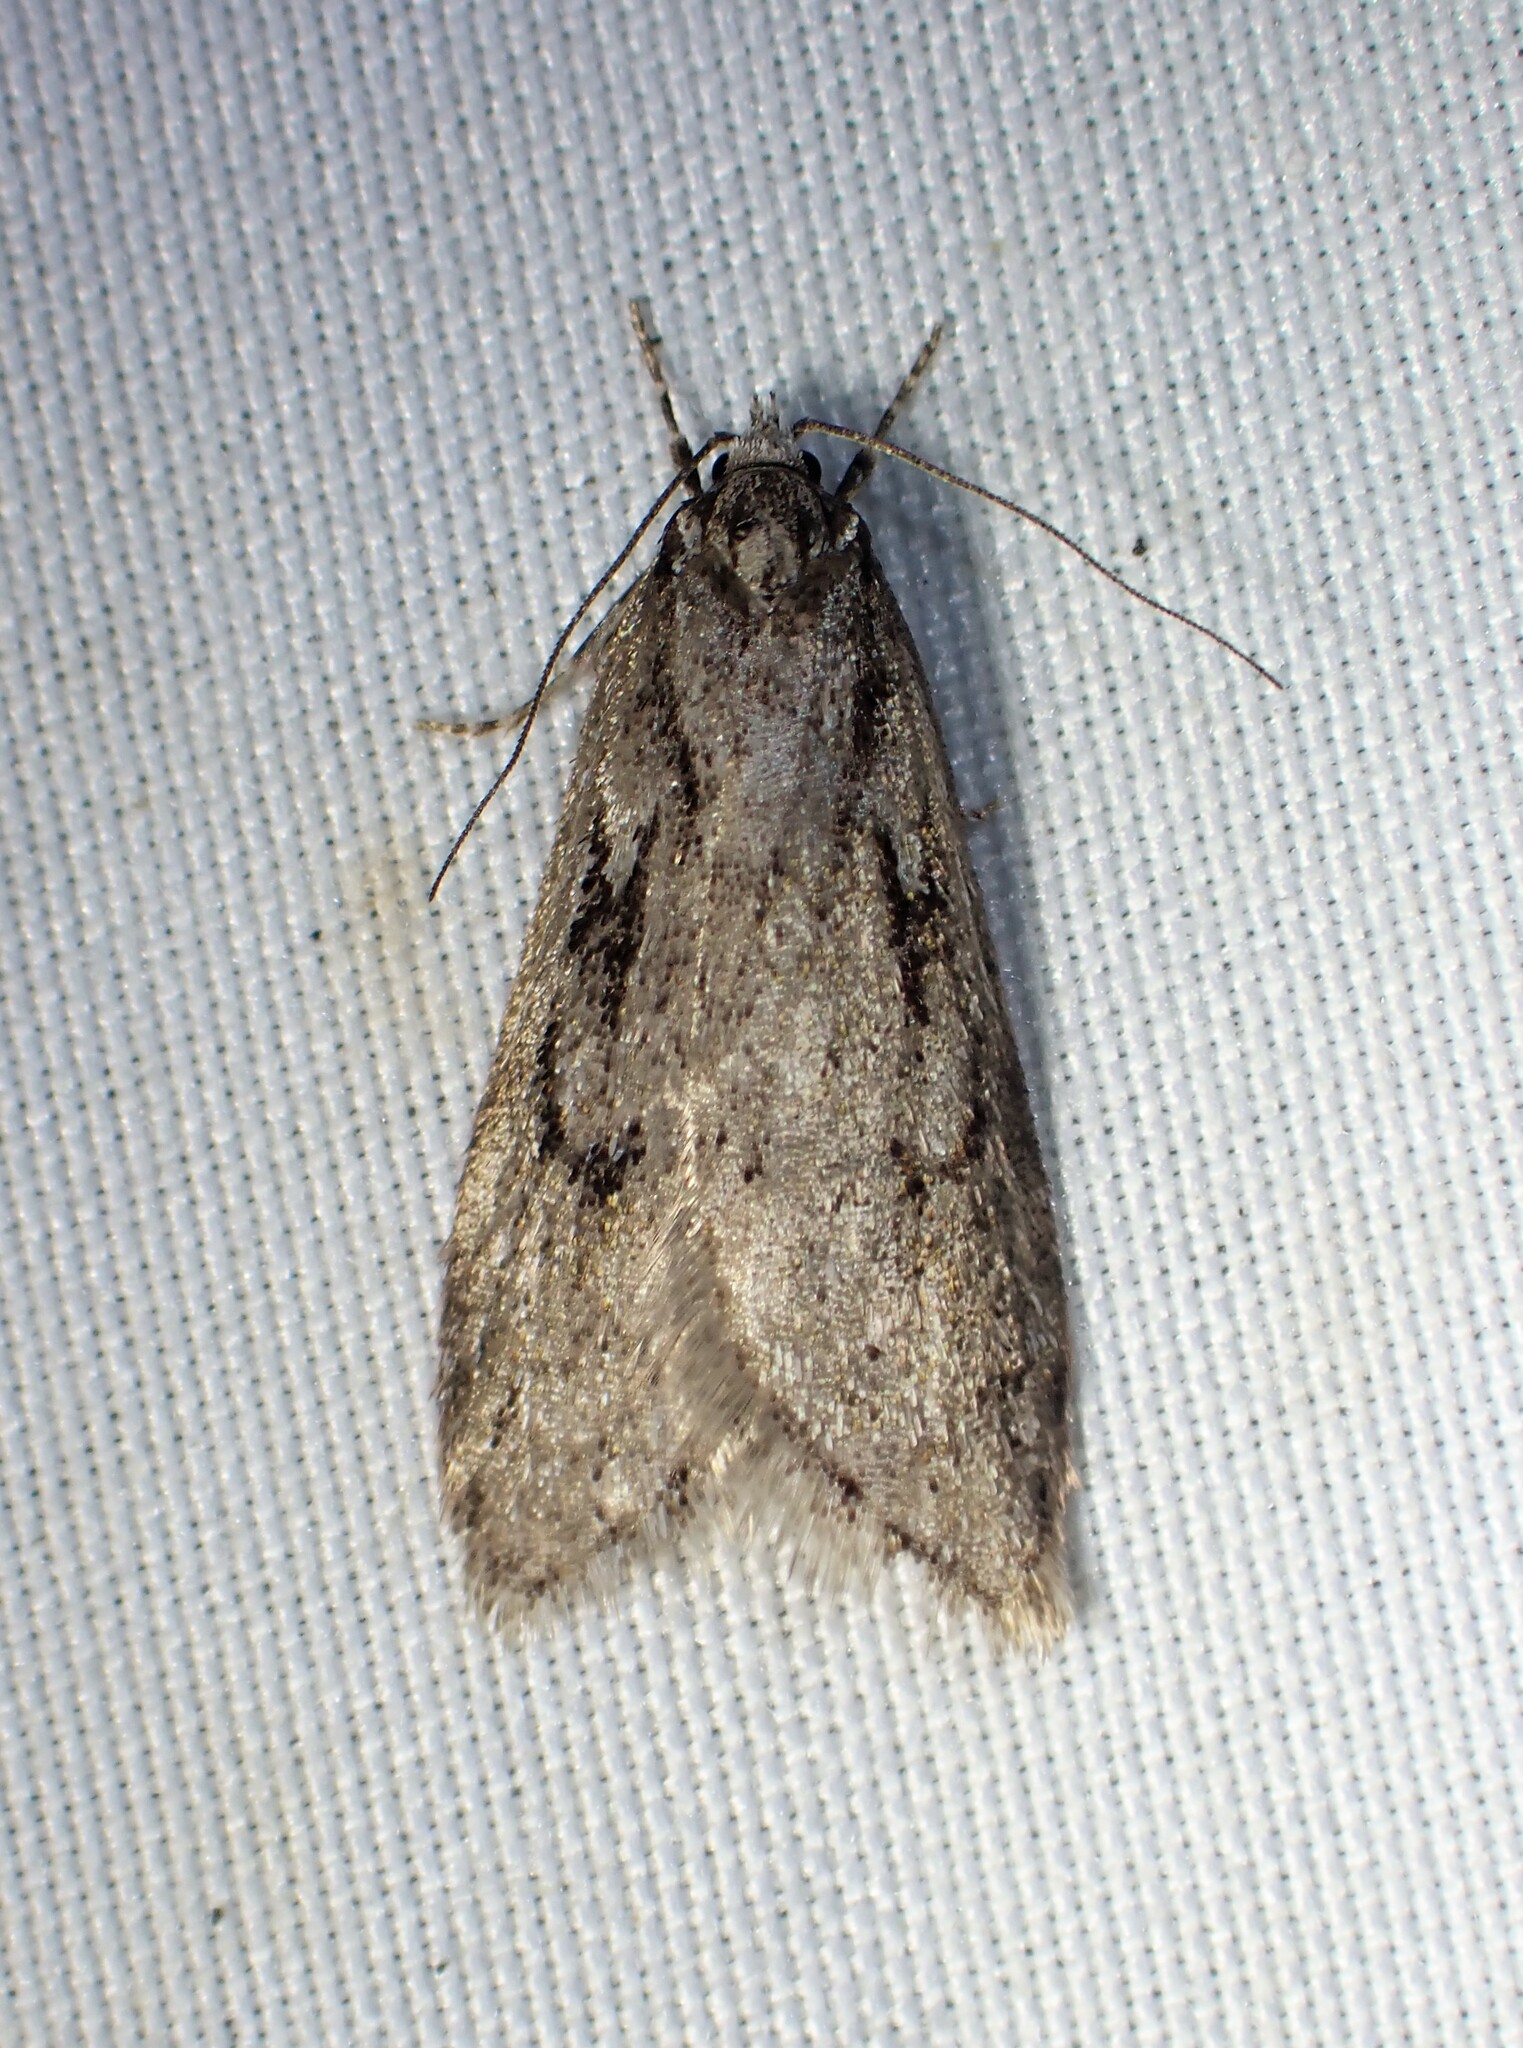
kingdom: Animalia
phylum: Arthropoda
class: Insecta
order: Lepidoptera
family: Depressariidae
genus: Semioscopis
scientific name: Semioscopis aurorella
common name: Aurora flatbody moth
